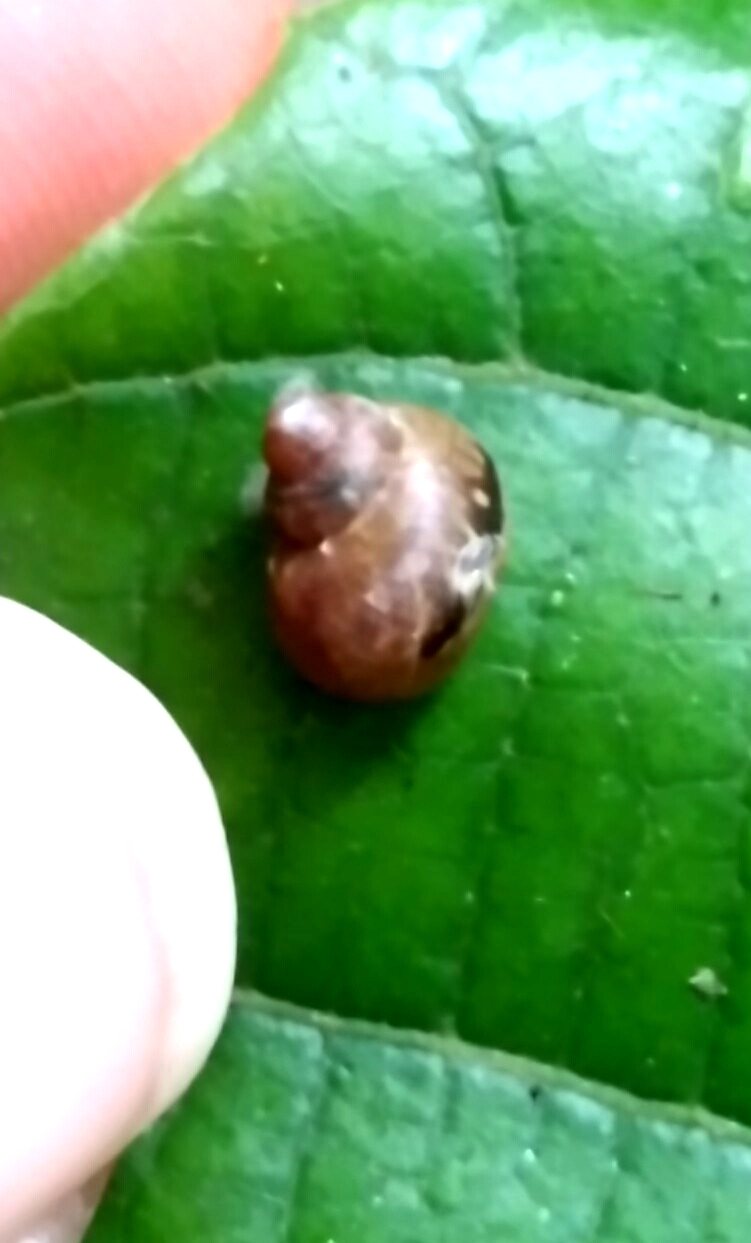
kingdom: Animalia
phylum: Mollusca
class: Gastropoda
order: Stylommatophora
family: Simpulopsidae
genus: Simpulopsis
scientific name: Simpulopsis citrinovitreus
